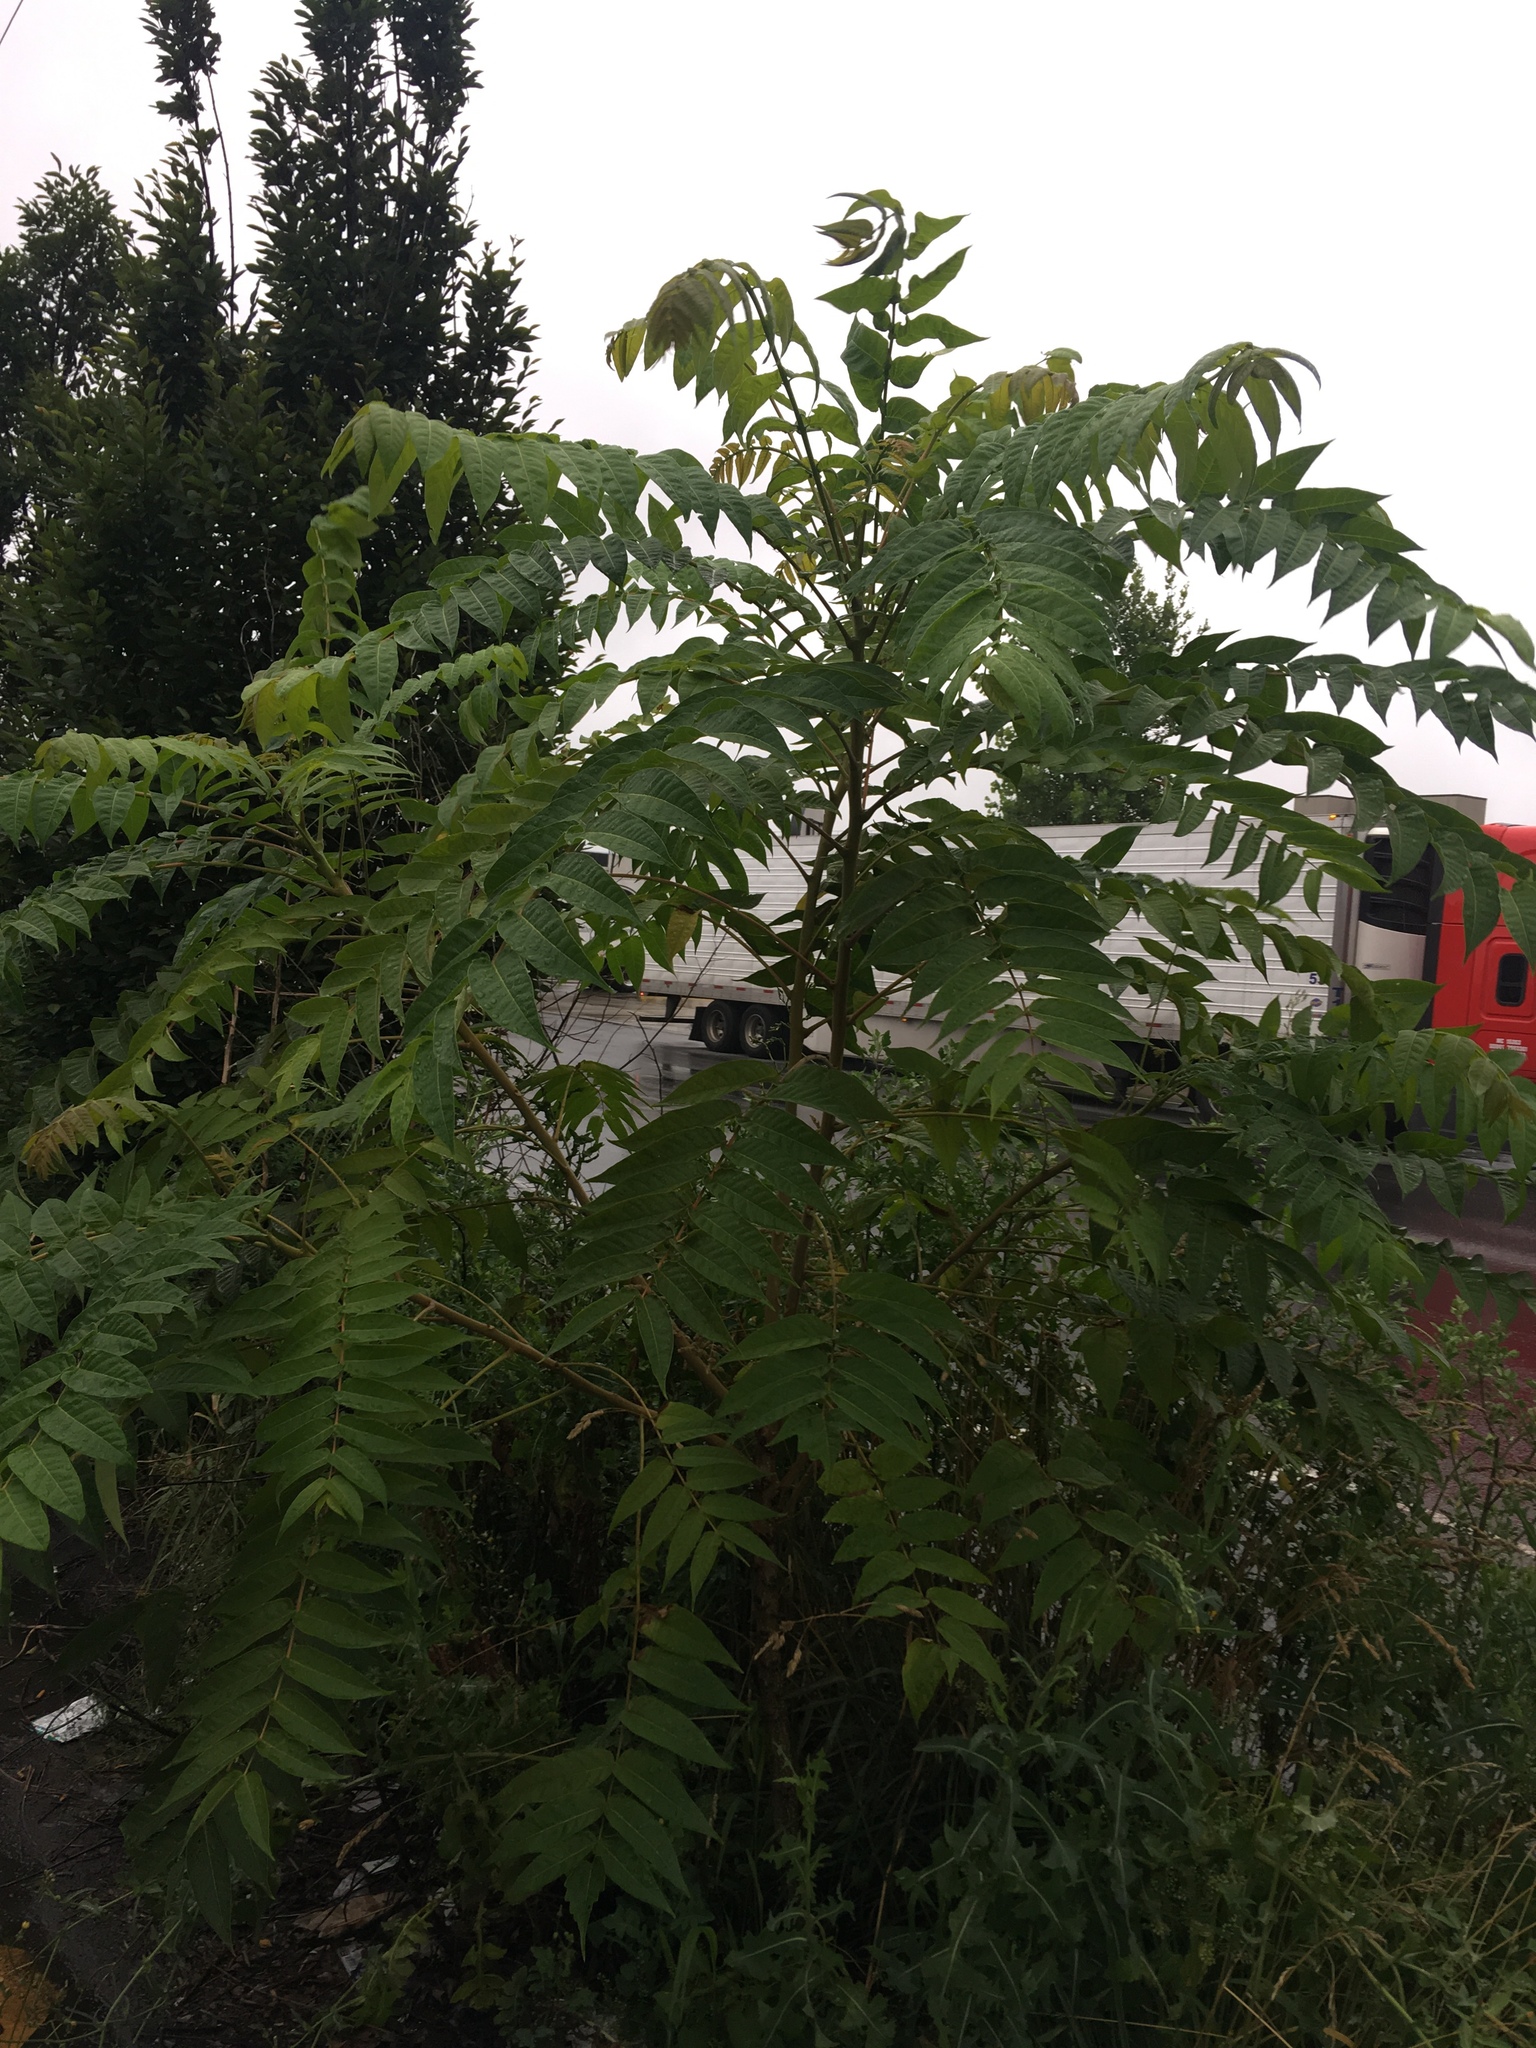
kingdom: Plantae
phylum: Tracheophyta
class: Magnoliopsida
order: Sapindales
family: Simaroubaceae
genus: Ailanthus
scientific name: Ailanthus altissima
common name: Tree-of-heaven
